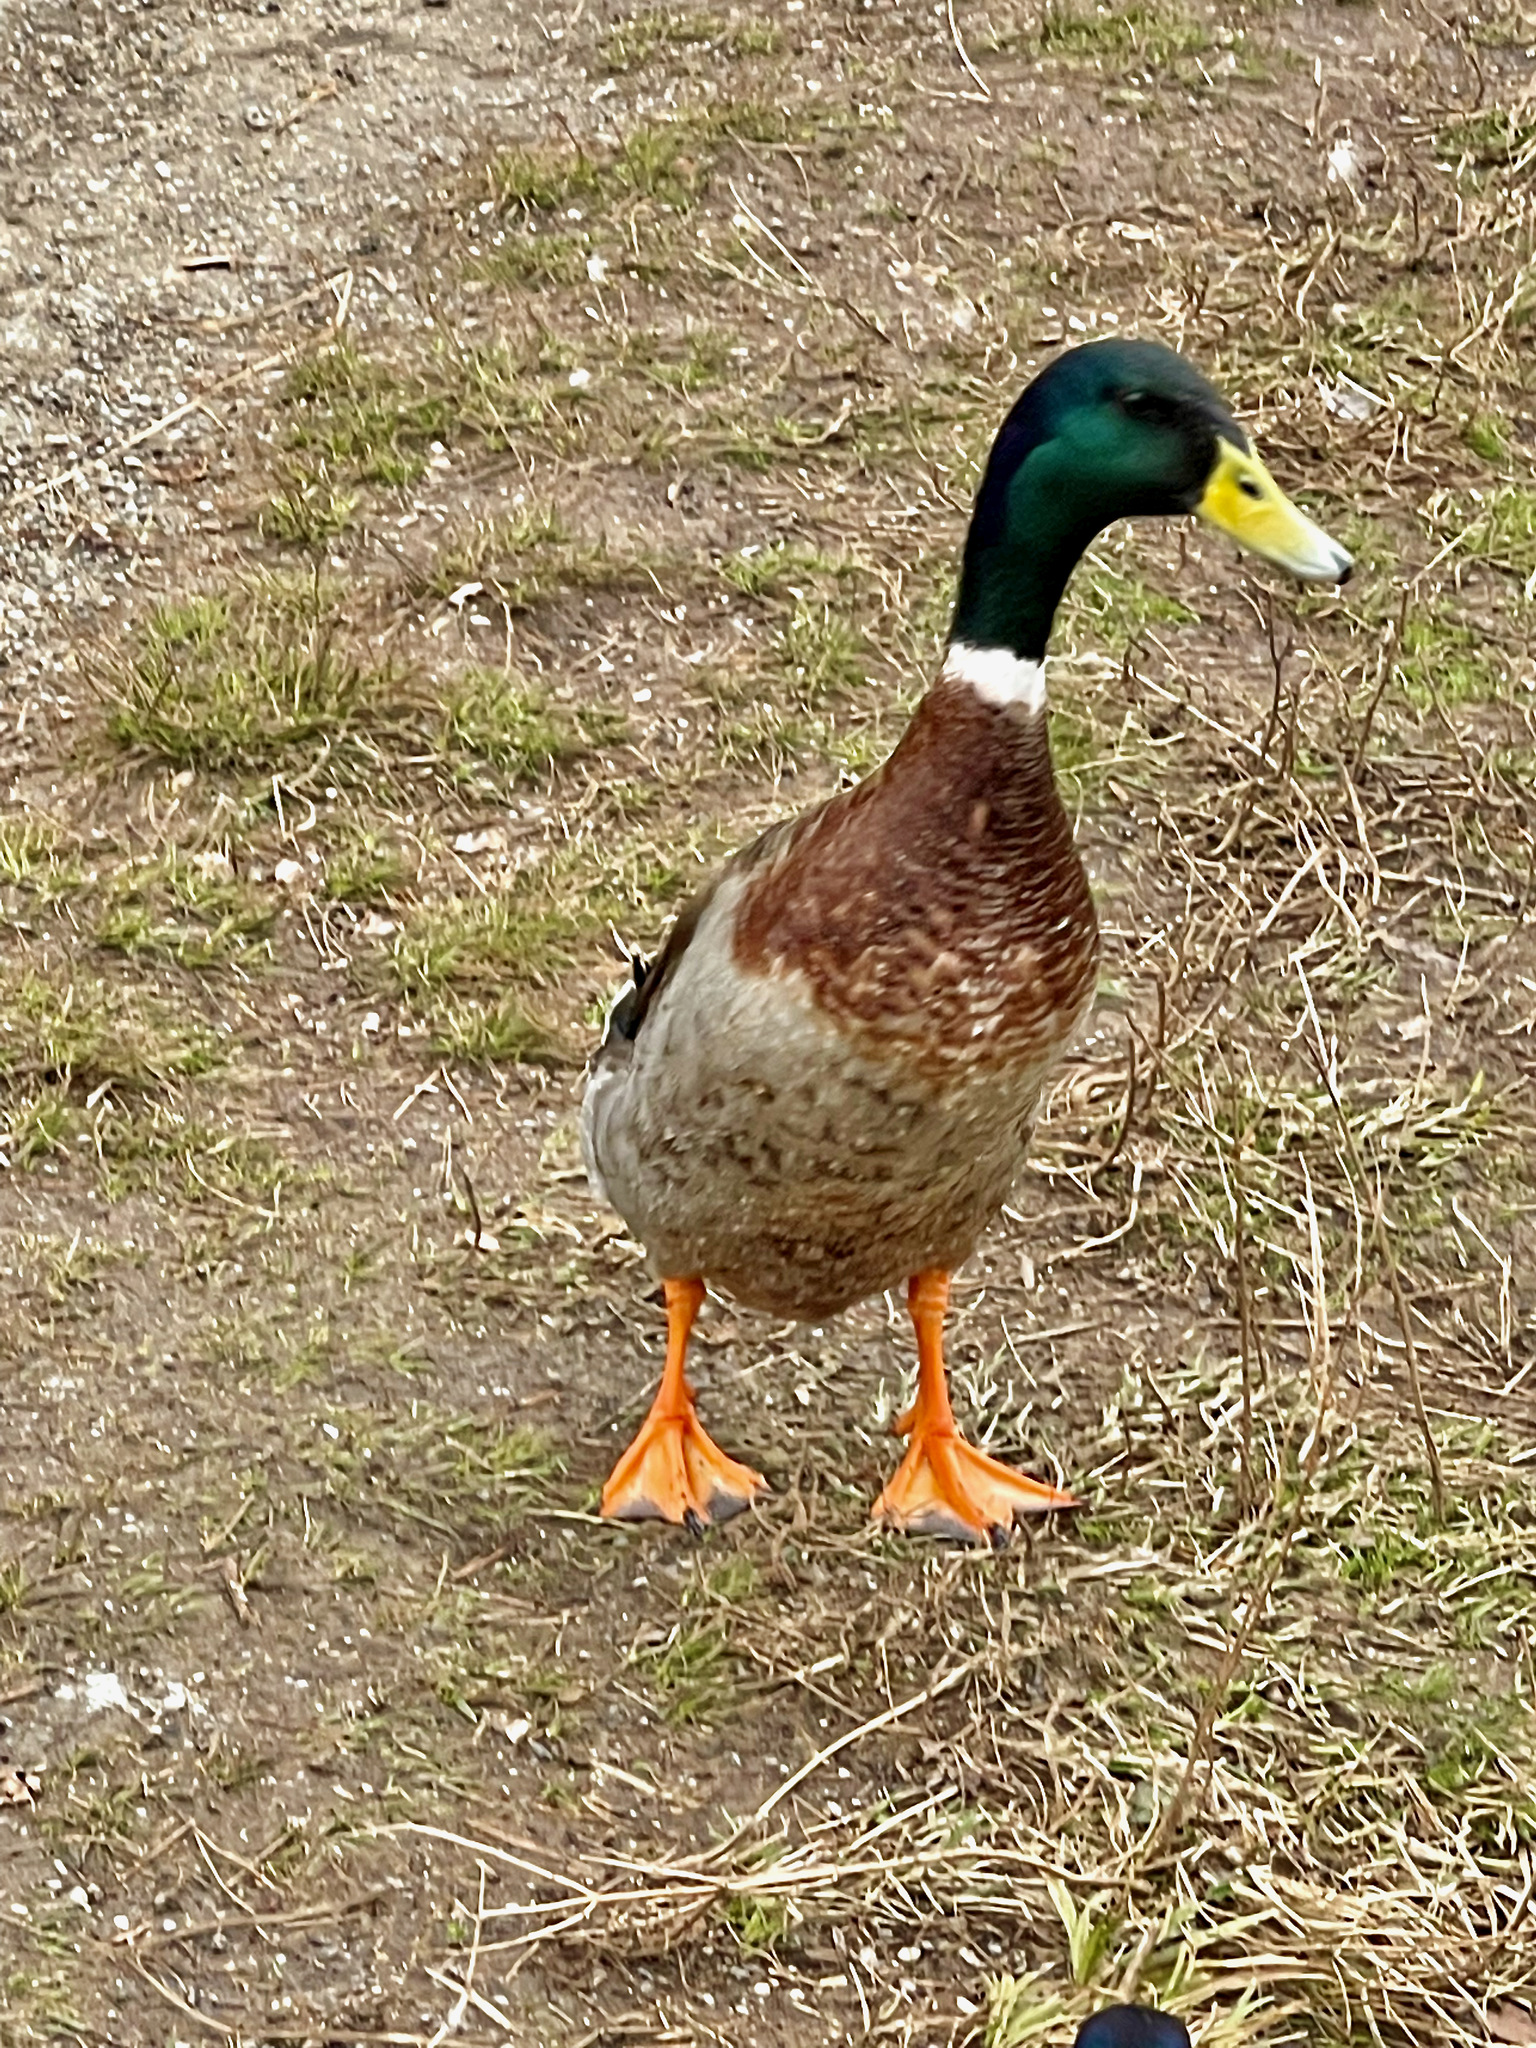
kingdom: Animalia
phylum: Chordata
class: Aves
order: Anseriformes
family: Anatidae
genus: Anas
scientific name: Anas platyrhynchos
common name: Mallard
